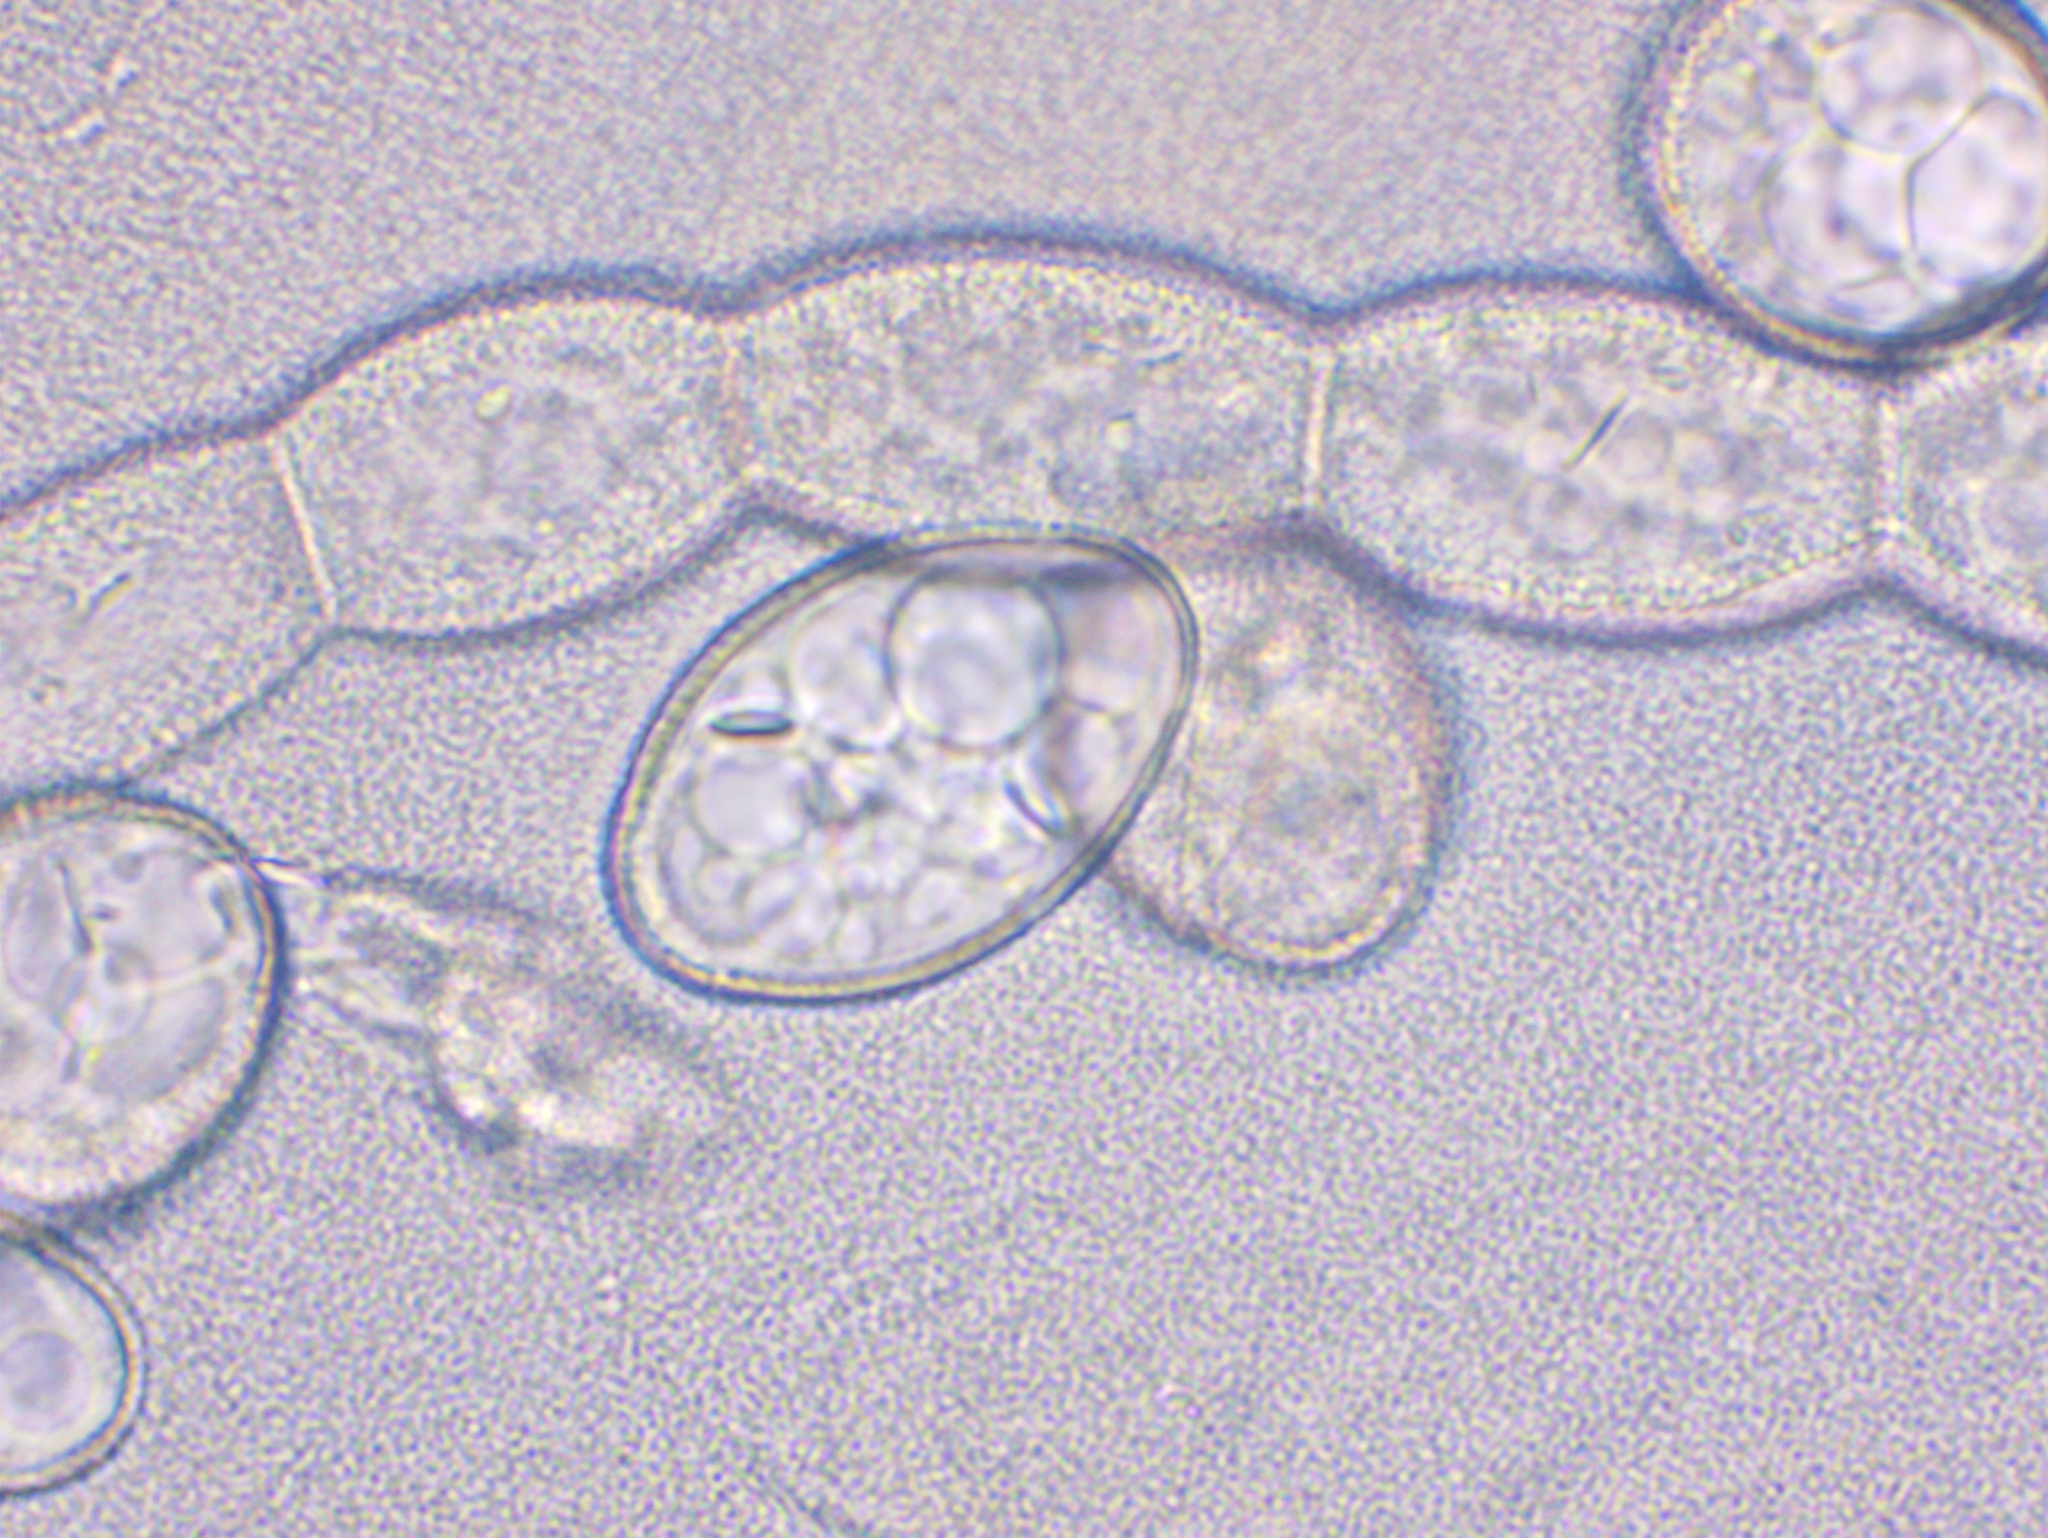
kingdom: Fungi
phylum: Ascomycota
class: Leotiomycetes
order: Helotiales
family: Erysiphaceae
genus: Podosphaera
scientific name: Podosphaera fusca
